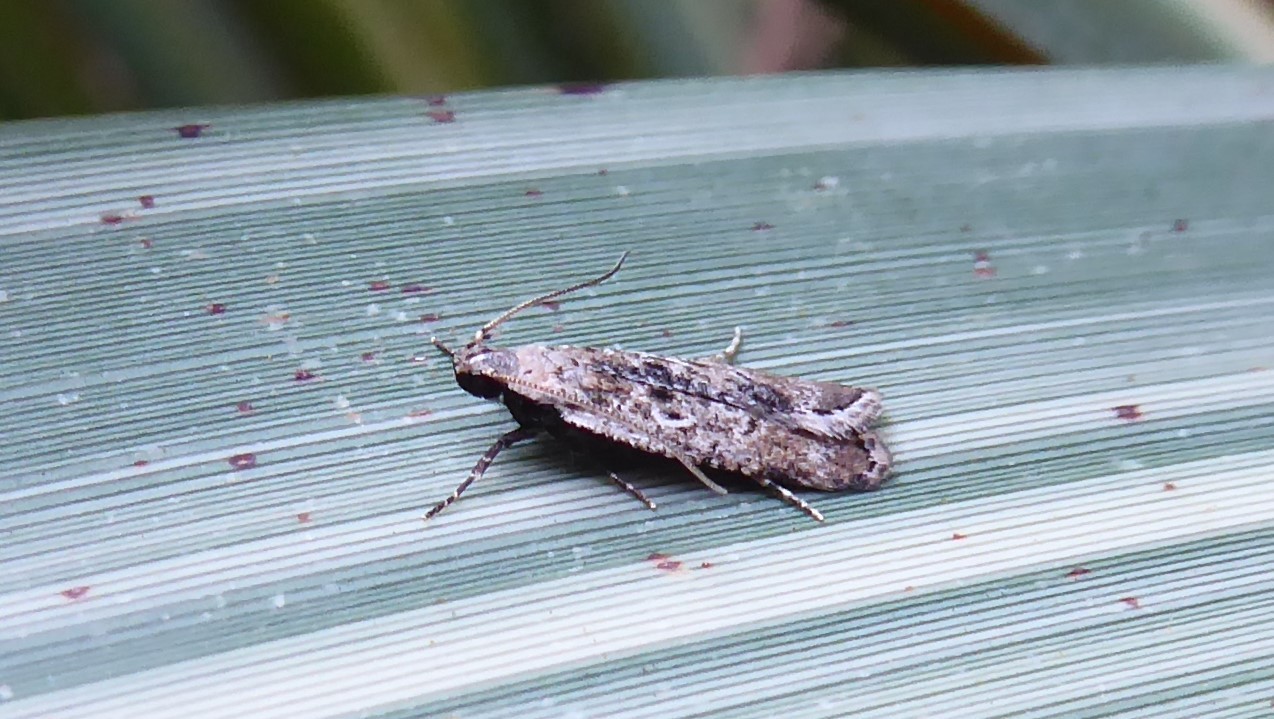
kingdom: Animalia
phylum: Arthropoda
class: Insecta
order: Lepidoptera
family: Gelechiidae
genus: Anisoplaca
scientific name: Anisoplaca achyrota
